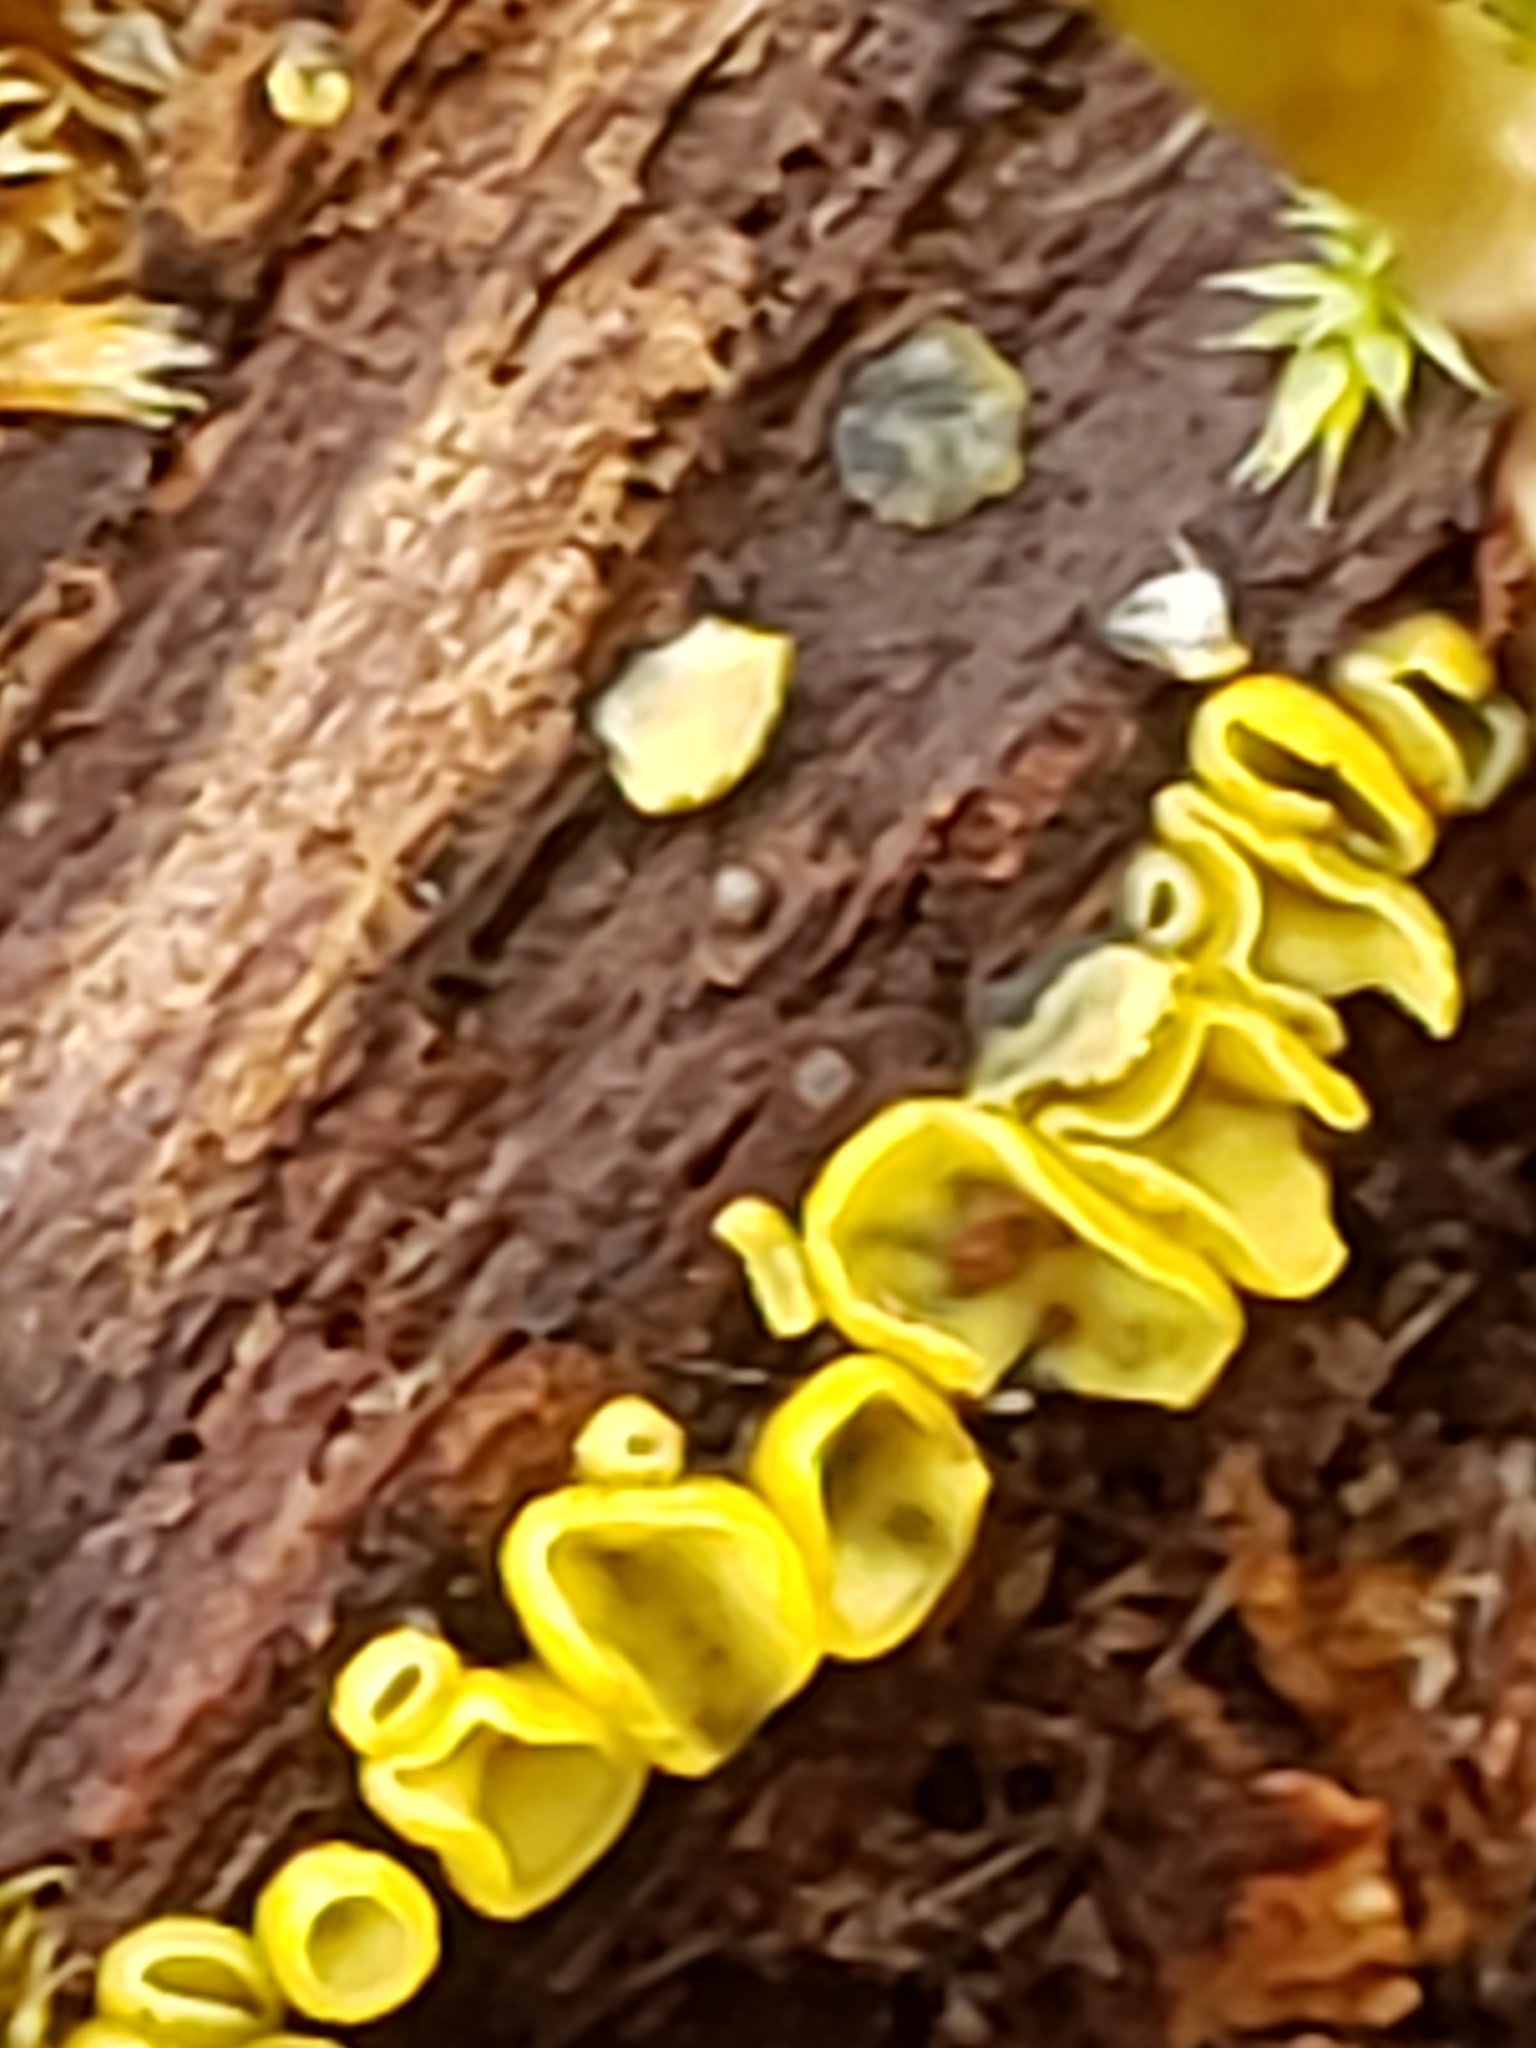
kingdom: Fungi
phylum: Ascomycota
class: Leotiomycetes
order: Helotiales
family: Chlorospleniaceae
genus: Chlorosplenium
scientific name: Chlorosplenium chlora
